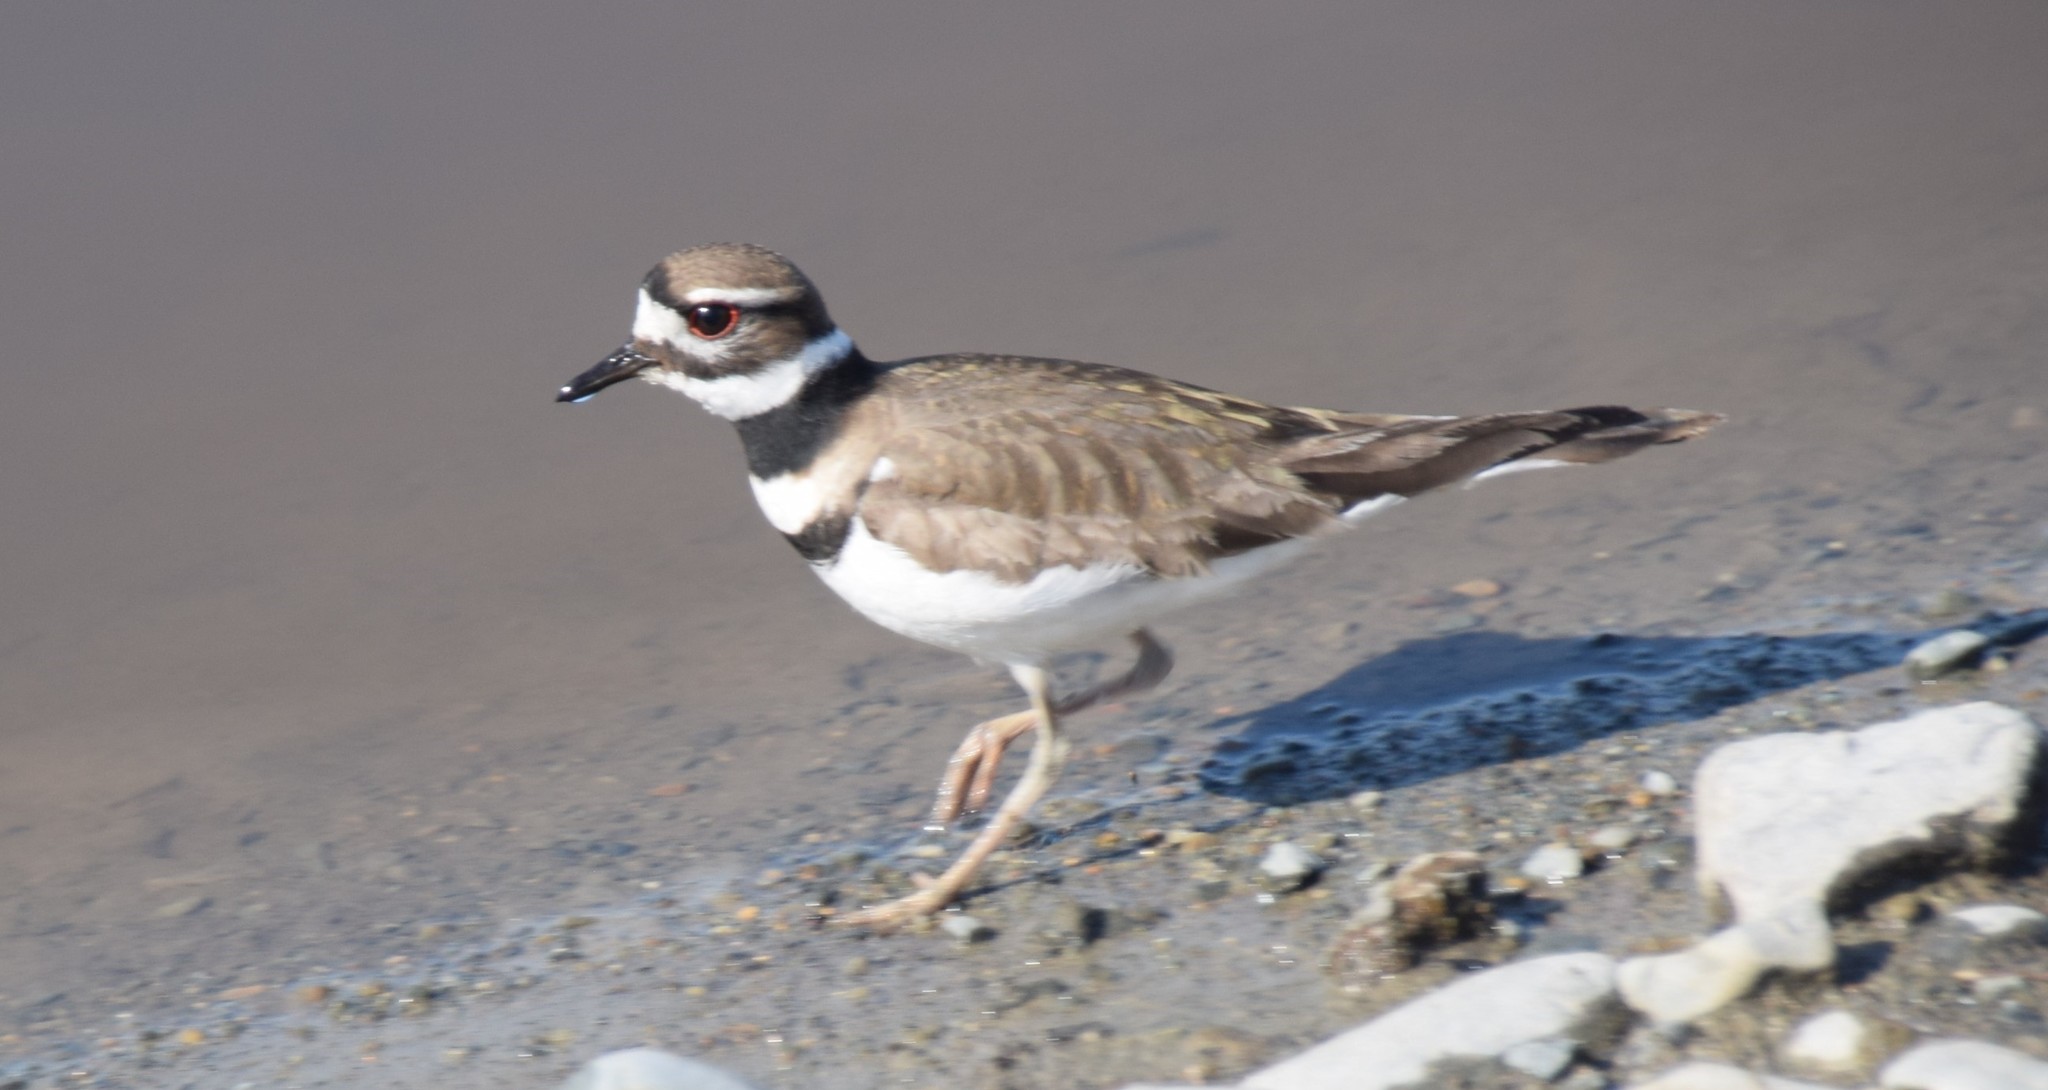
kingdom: Animalia
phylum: Chordata
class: Aves
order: Charadriiformes
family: Charadriidae
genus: Charadrius
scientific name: Charadrius vociferus
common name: Killdeer
